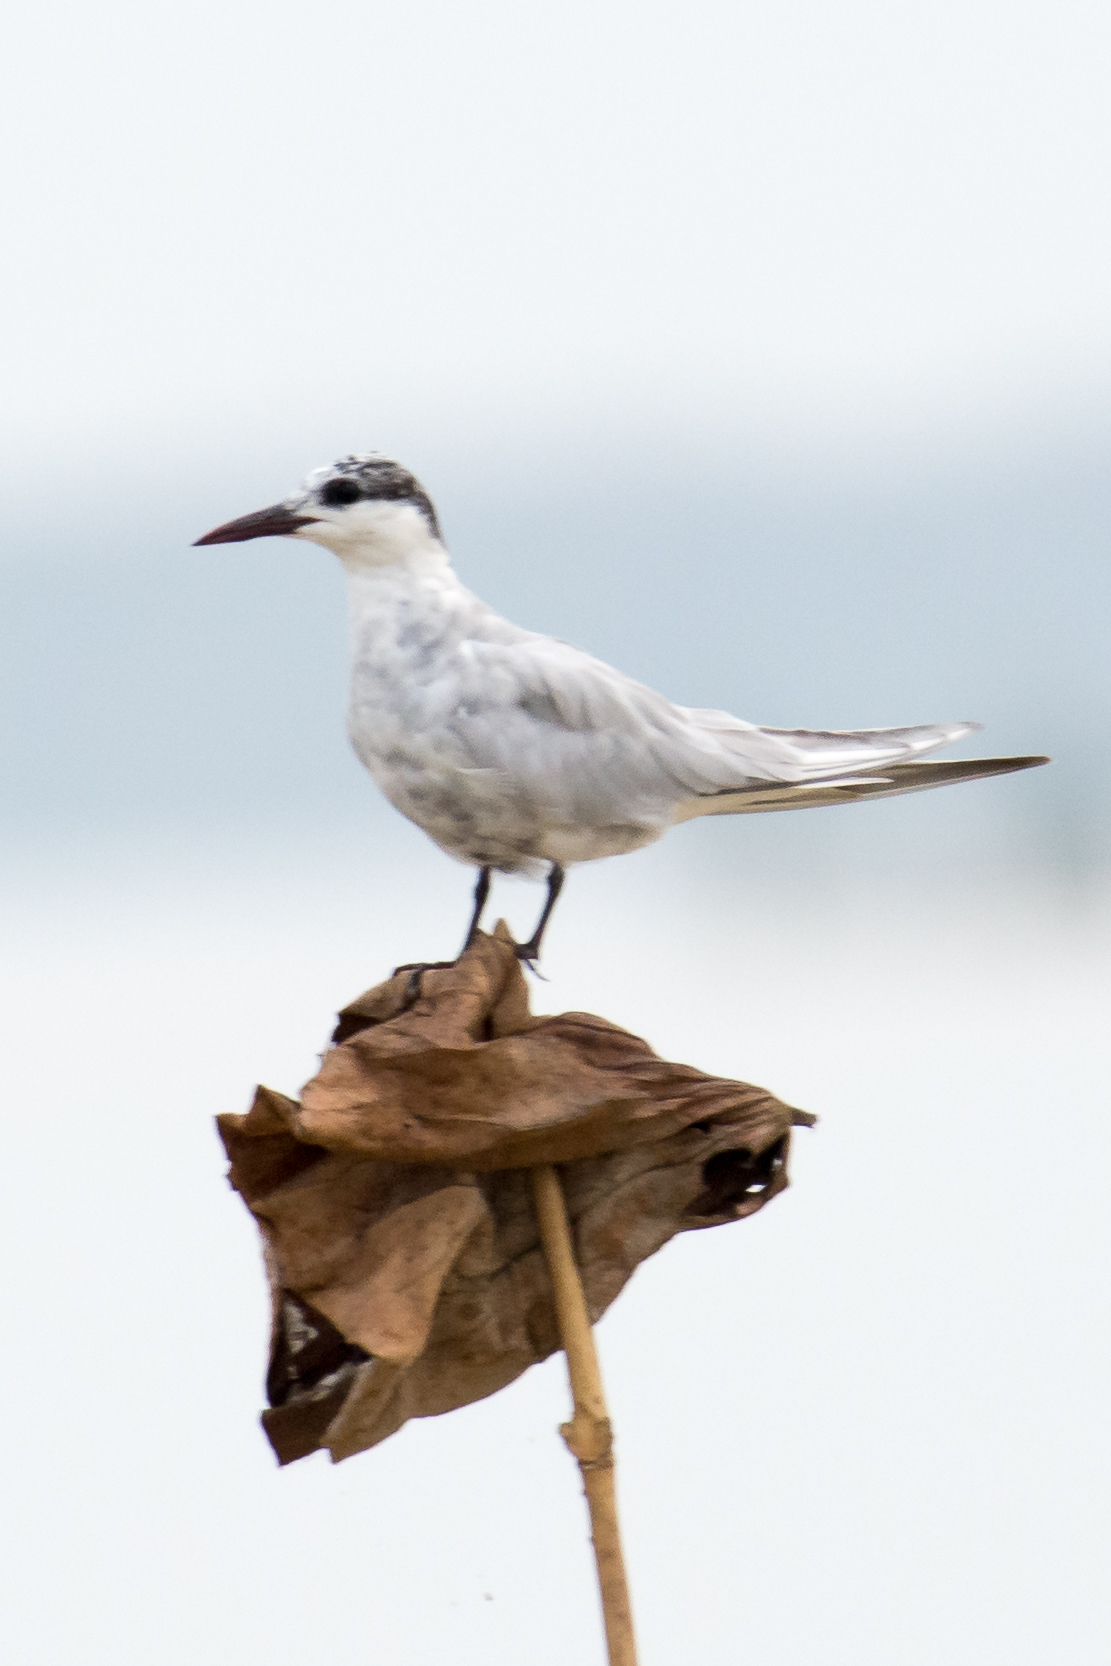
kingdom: Animalia
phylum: Chordata
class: Aves
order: Charadriiformes
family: Laridae
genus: Chlidonias
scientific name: Chlidonias hybrida
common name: Whiskered tern
